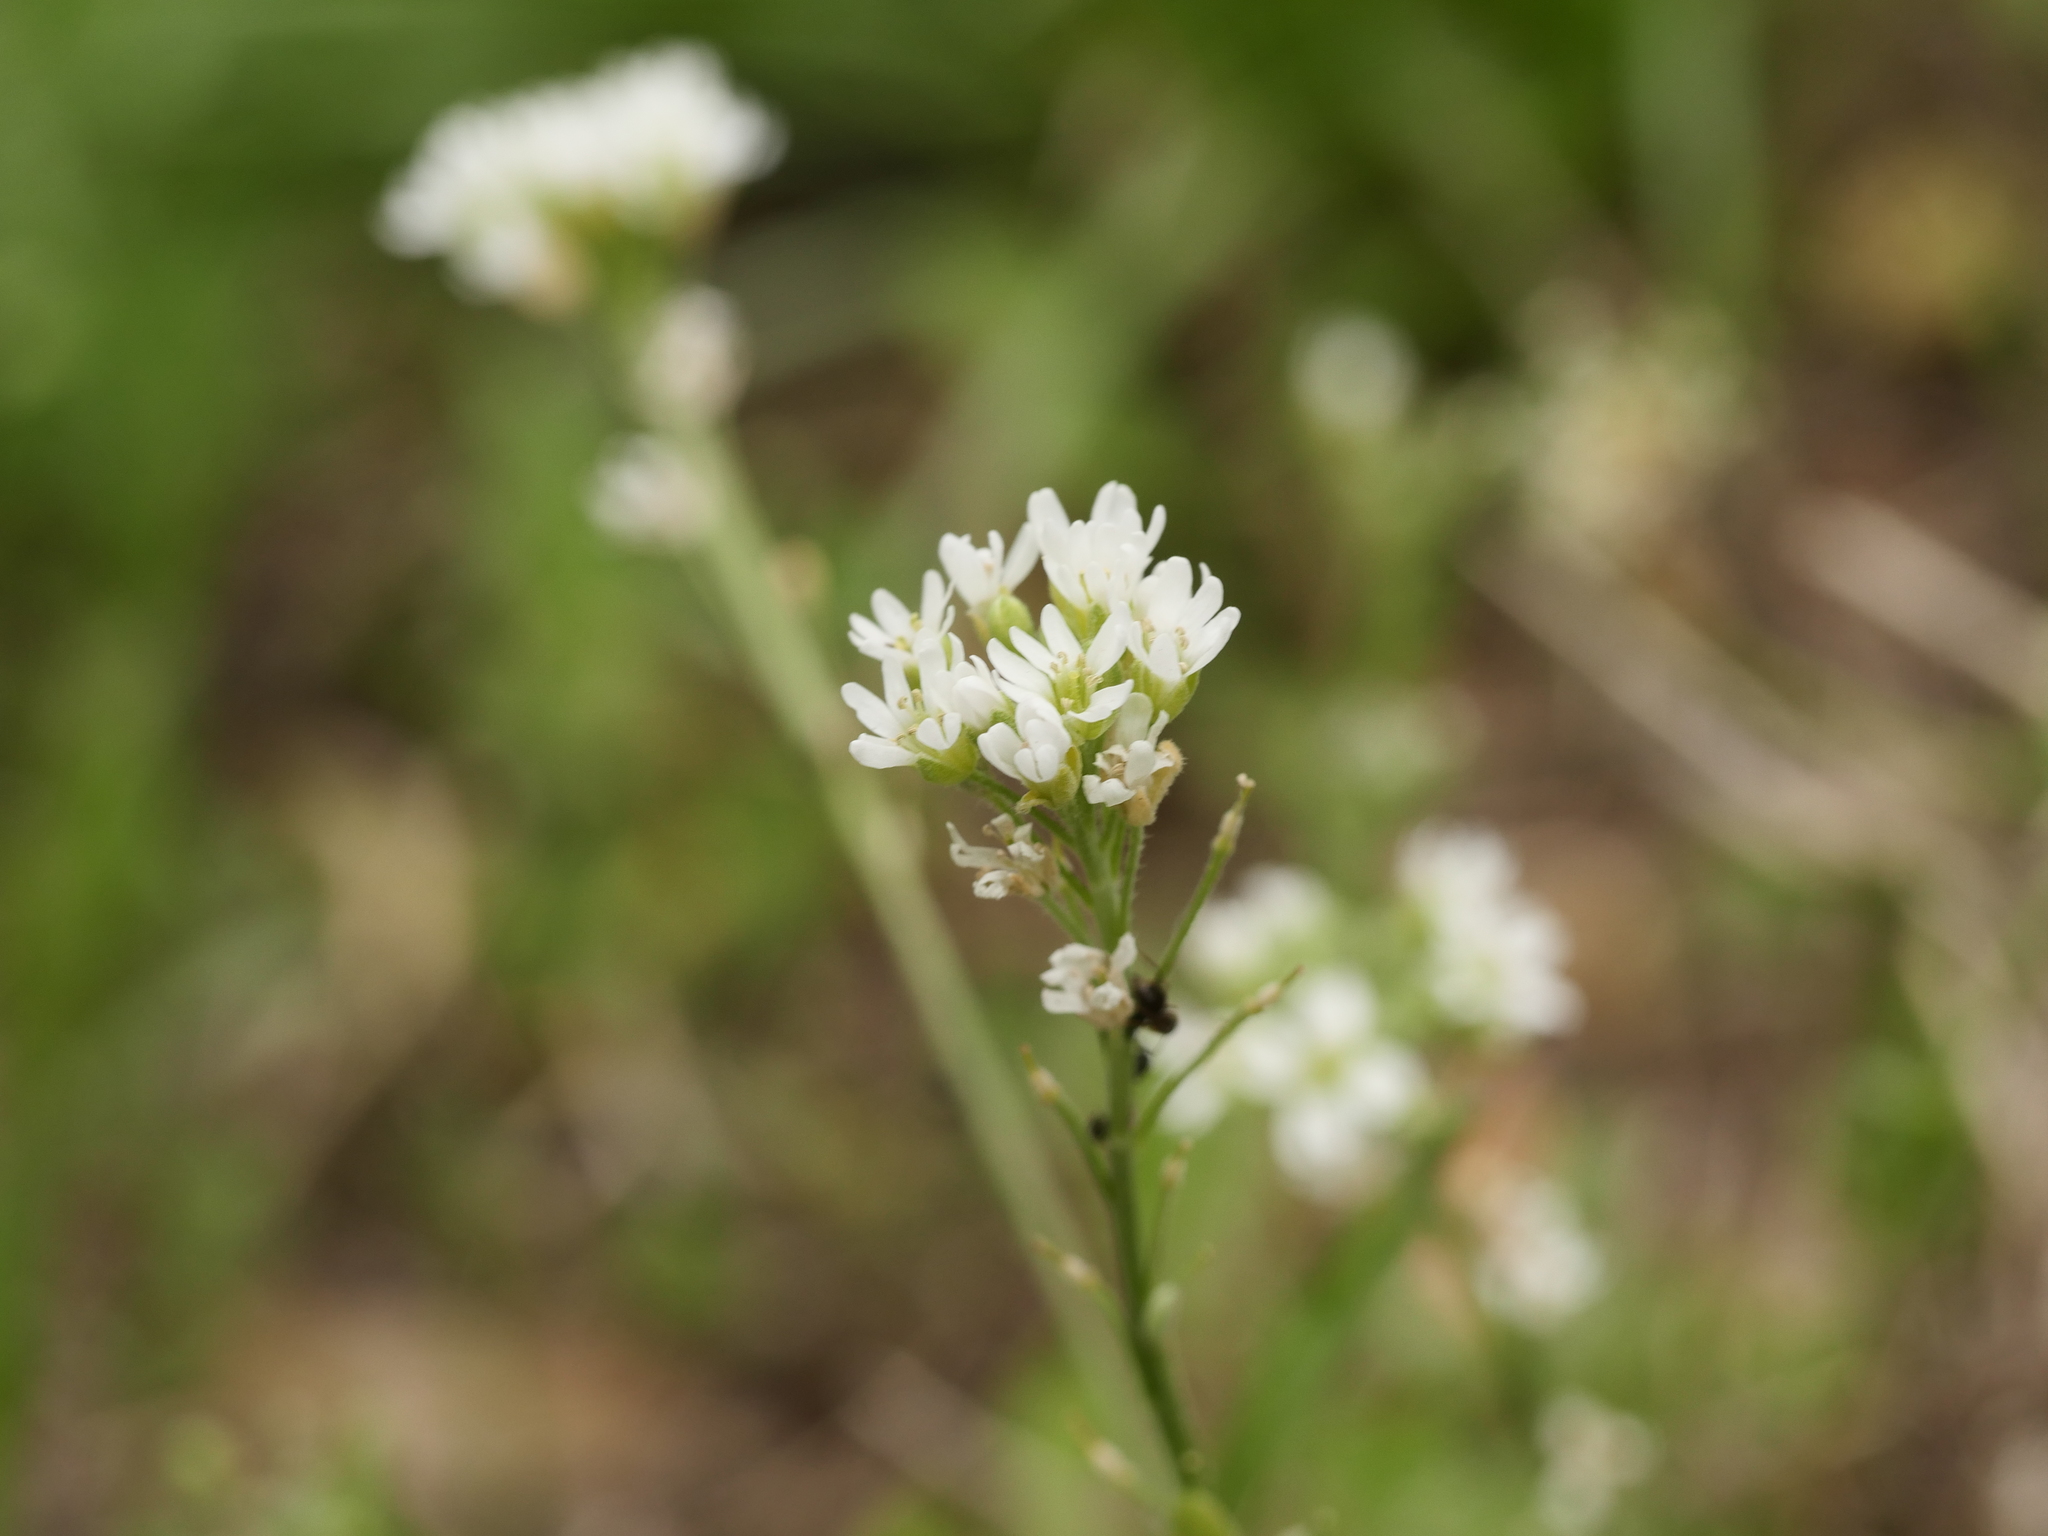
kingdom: Plantae
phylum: Tracheophyta
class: Magnoliopsida
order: Brassicales
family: Brassicaceae
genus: Berteroa
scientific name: Berteroa incana
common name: Hoary alison
